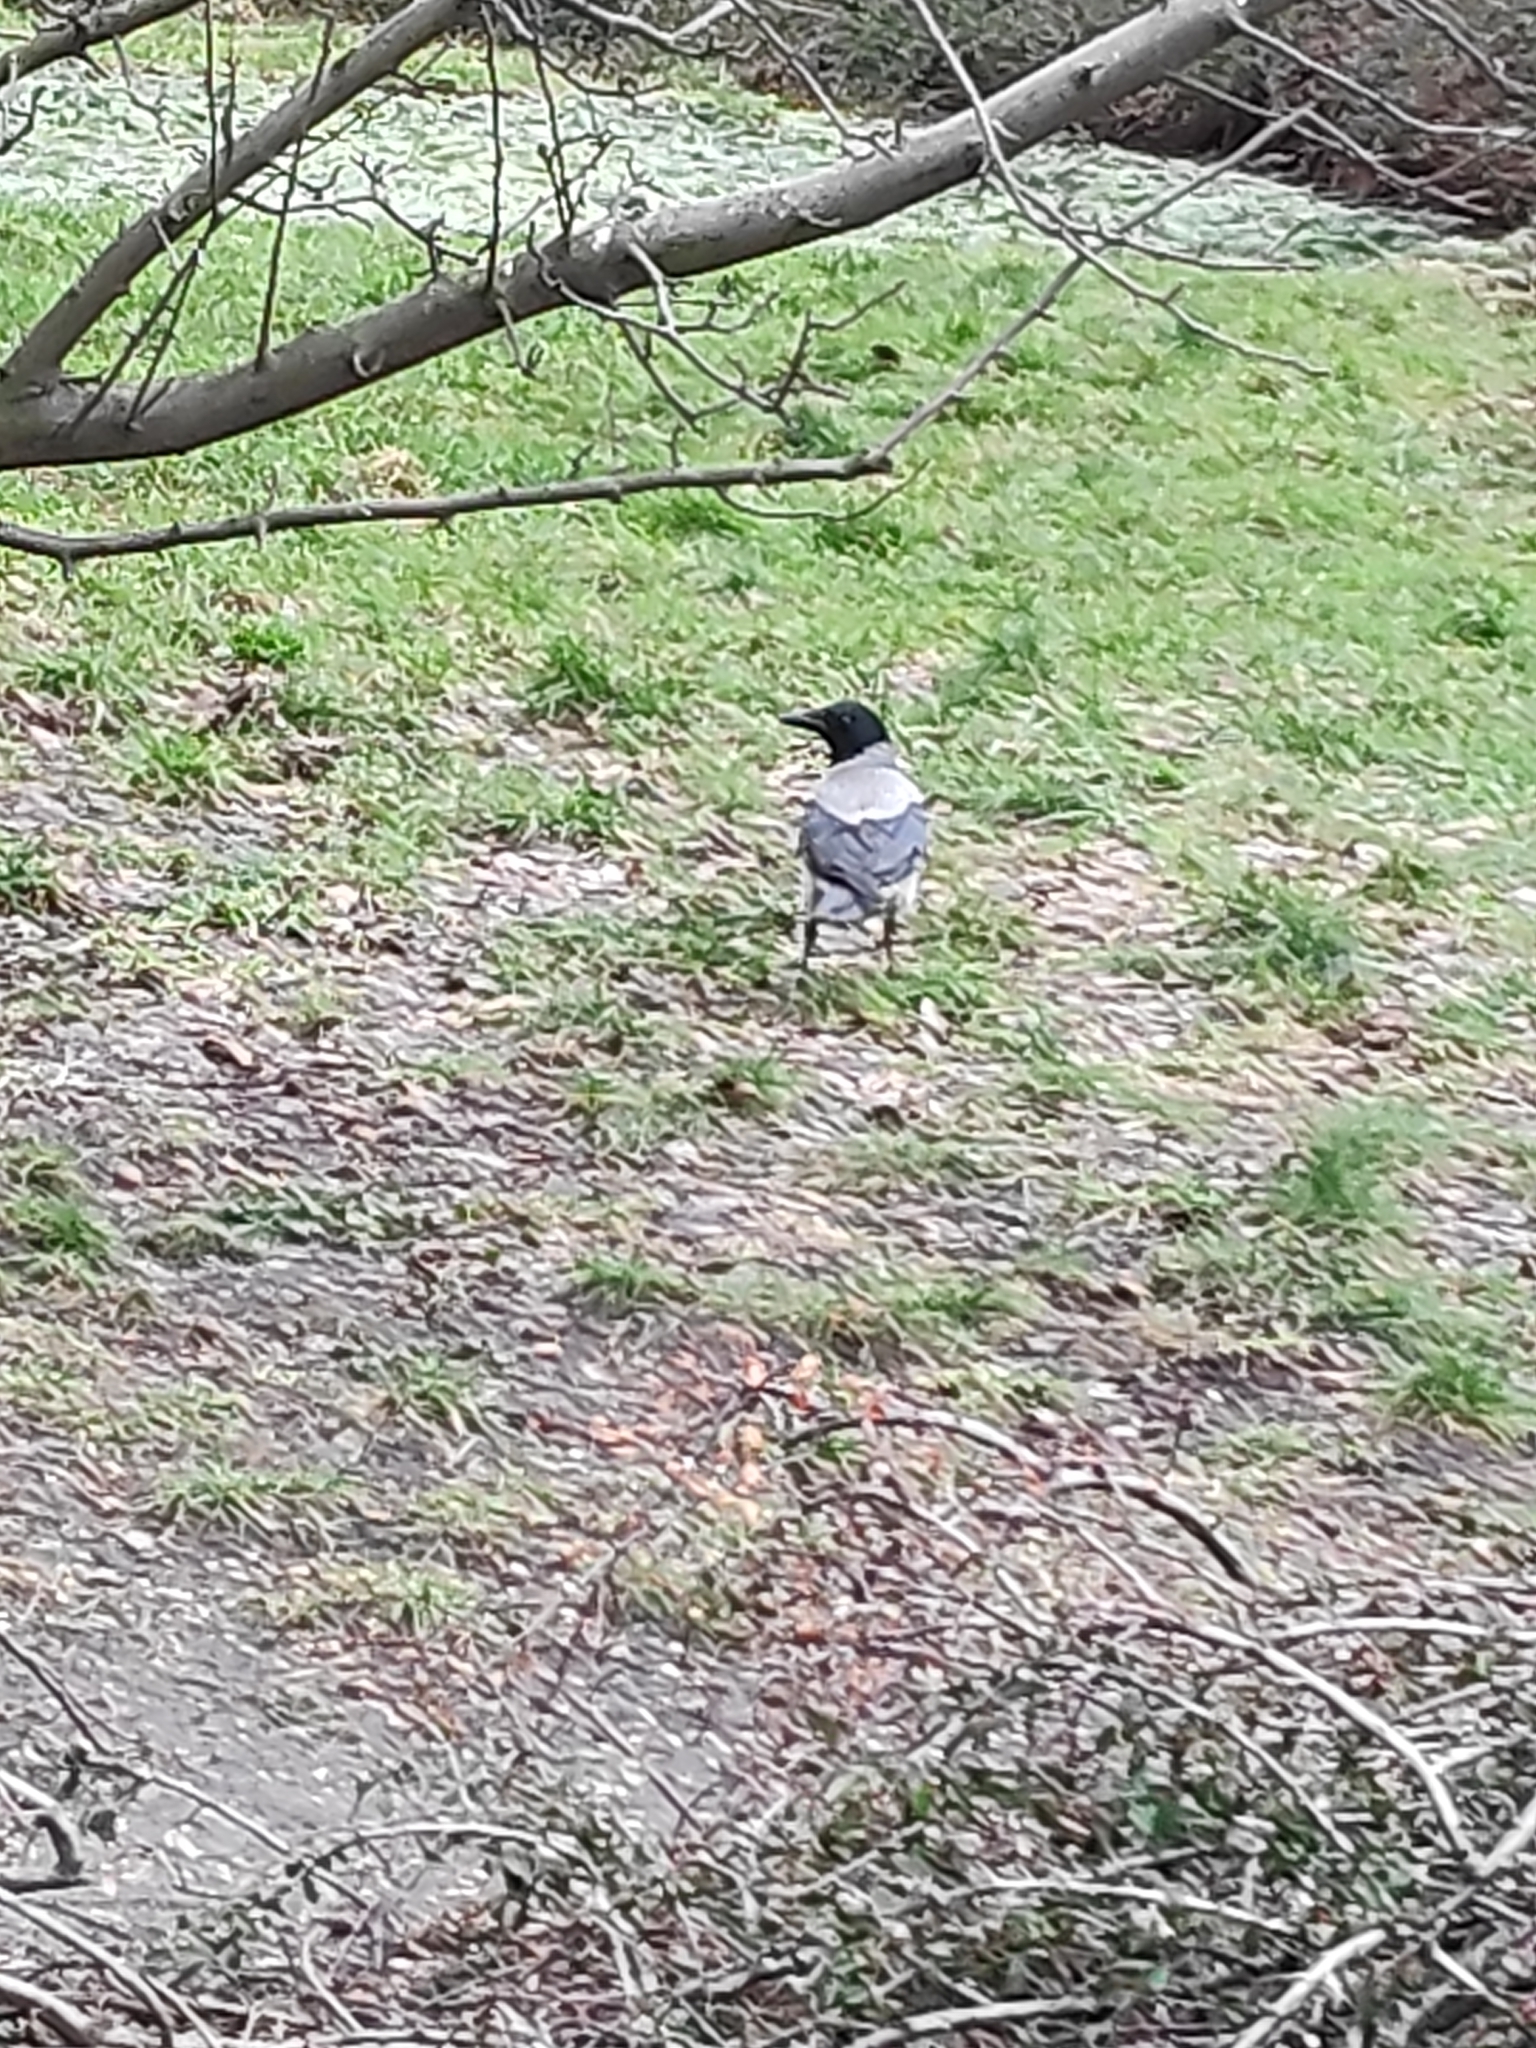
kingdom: Animalia
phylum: Chordata
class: Aves
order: Passeriformes
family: Corvidae
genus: Corvus
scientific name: Corvus cornix
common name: Hooded crow
